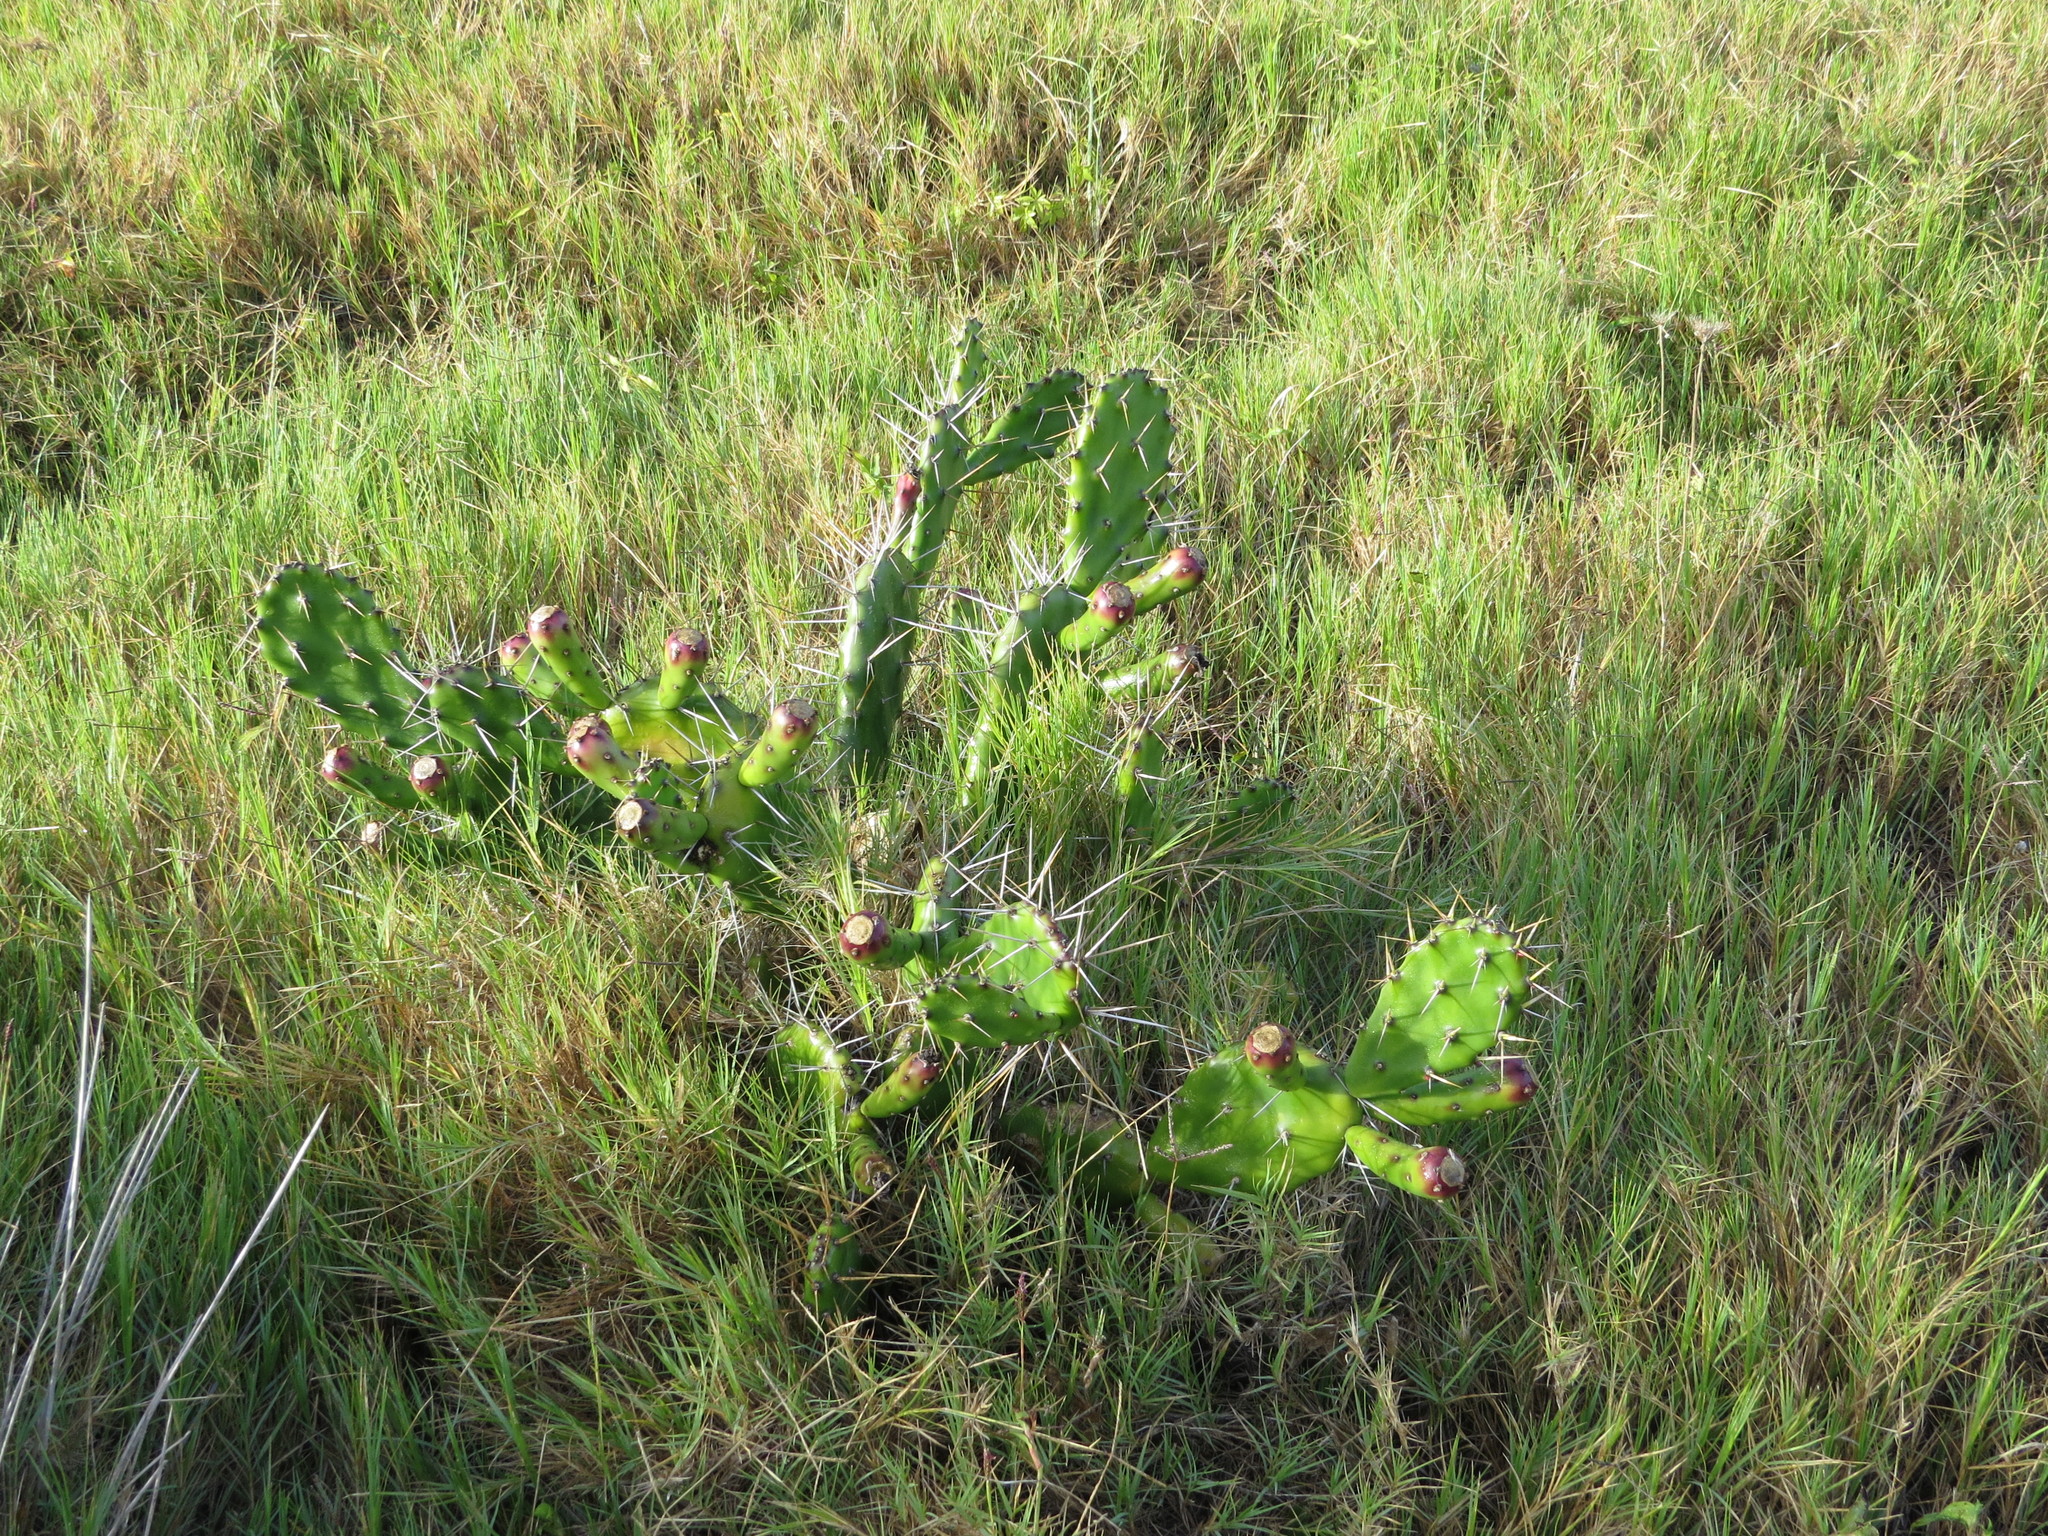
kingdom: Plantae
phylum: Tracheophyta
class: Magnoliopsida
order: Caryophyllales
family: Cactaceae
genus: Opuntia
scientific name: Opuntia arechavaletae
